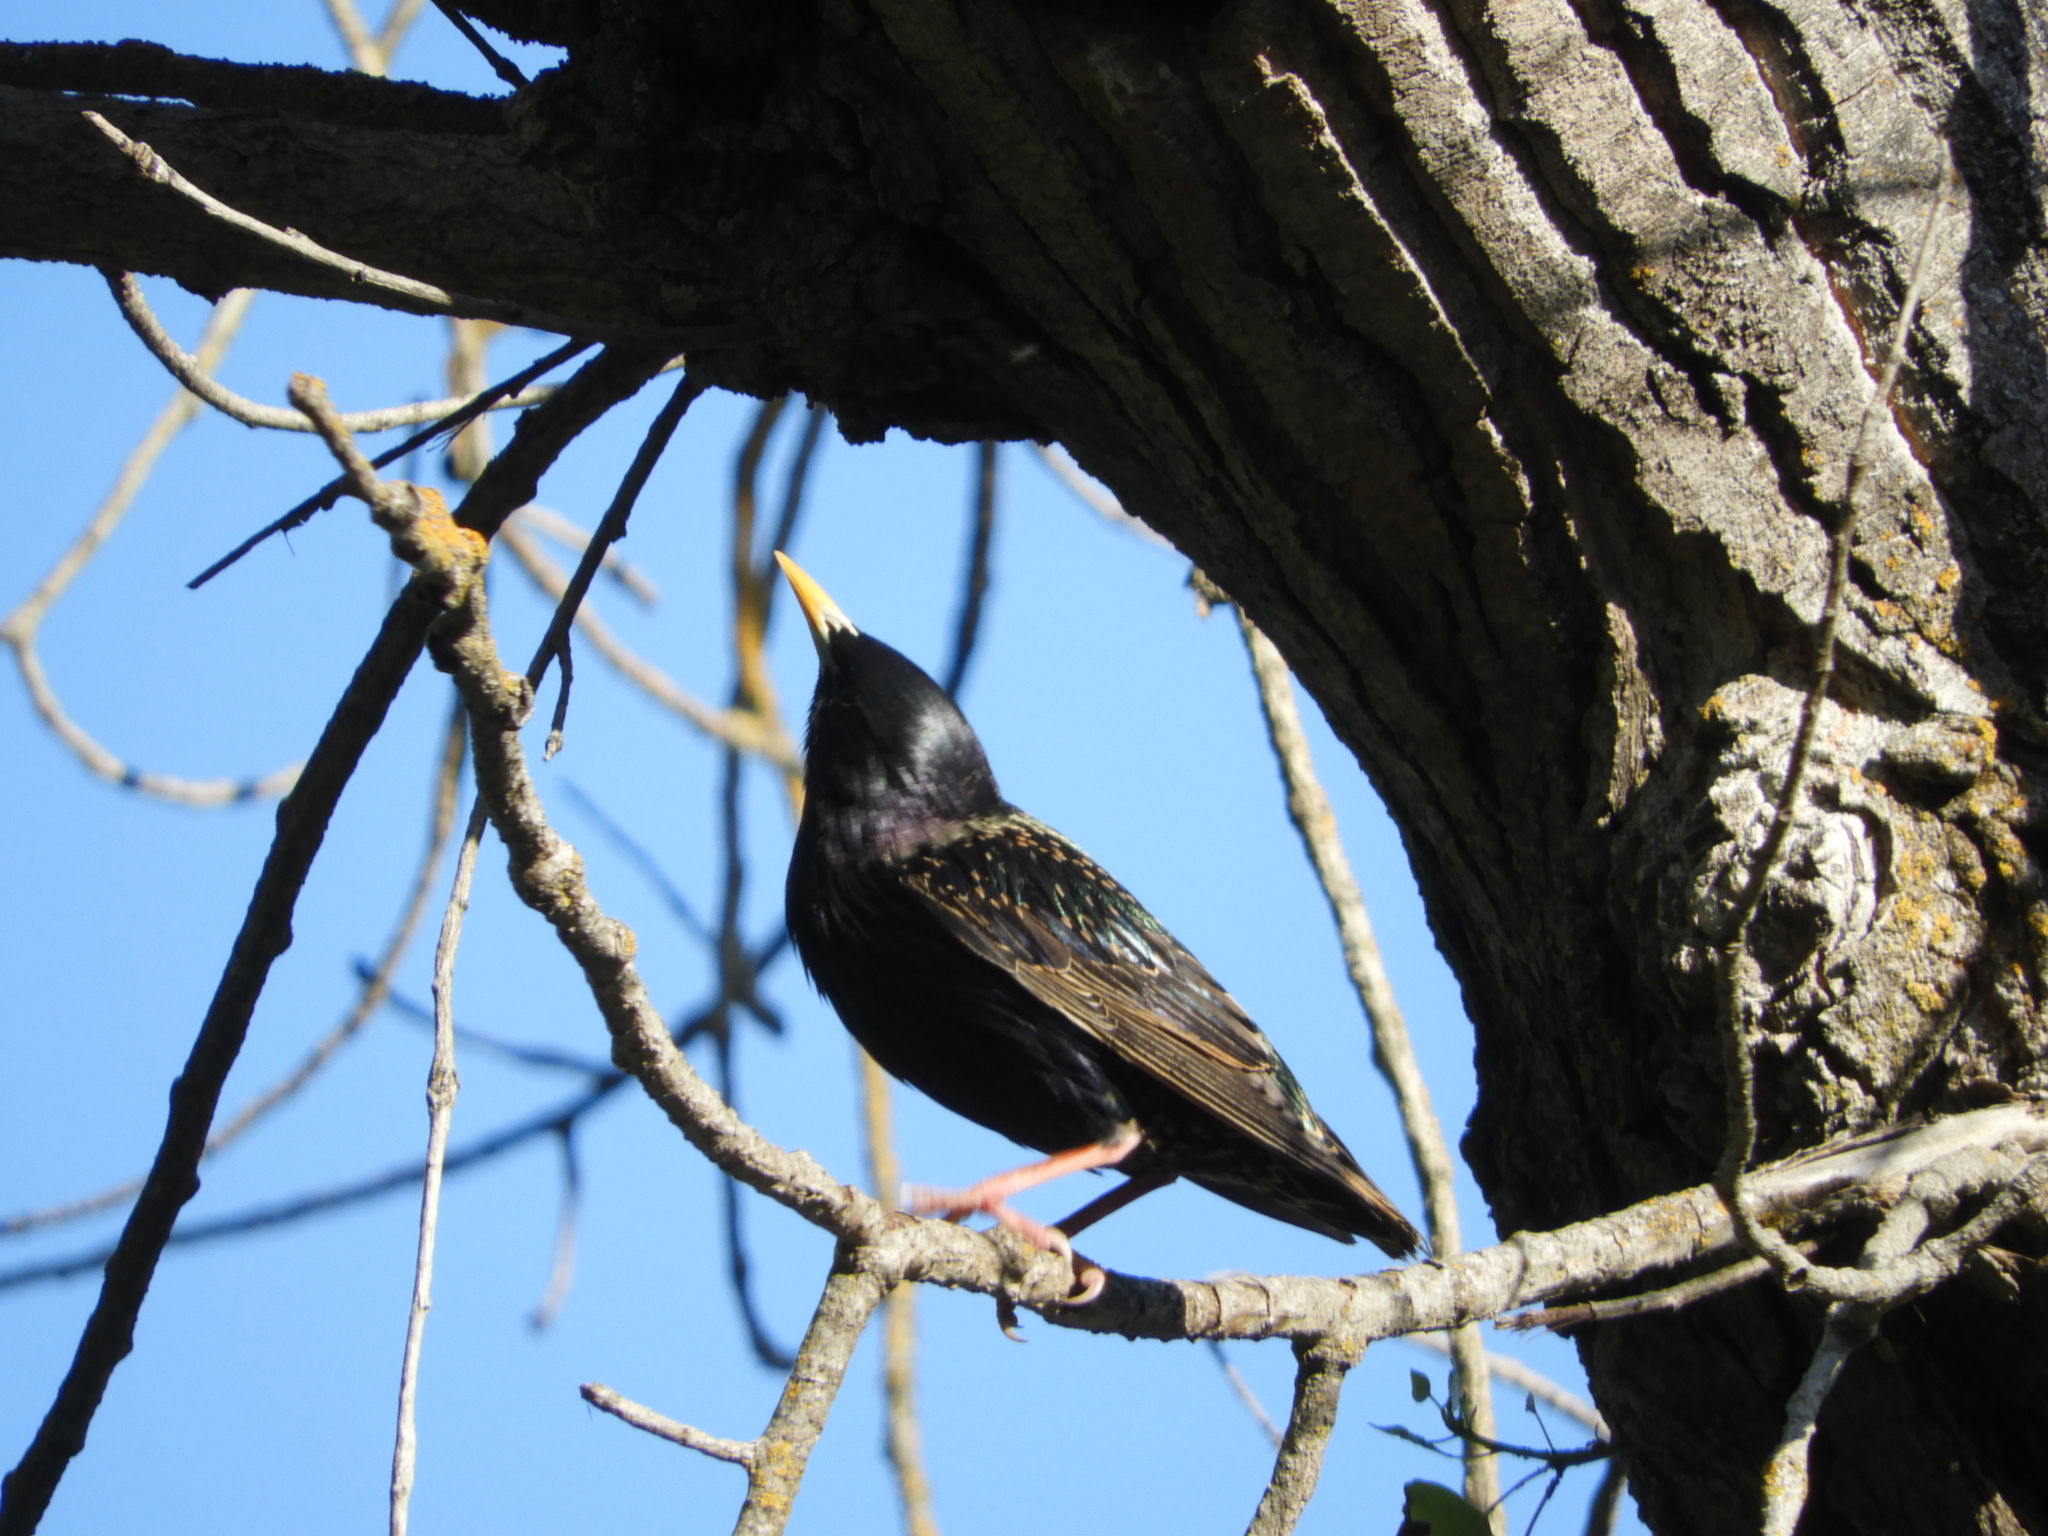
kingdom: Animalia
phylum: Chordata
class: Aves
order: Passeriformes
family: Sturnidae
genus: Sturnus
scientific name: Sturnus vulgaris
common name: Common starling
